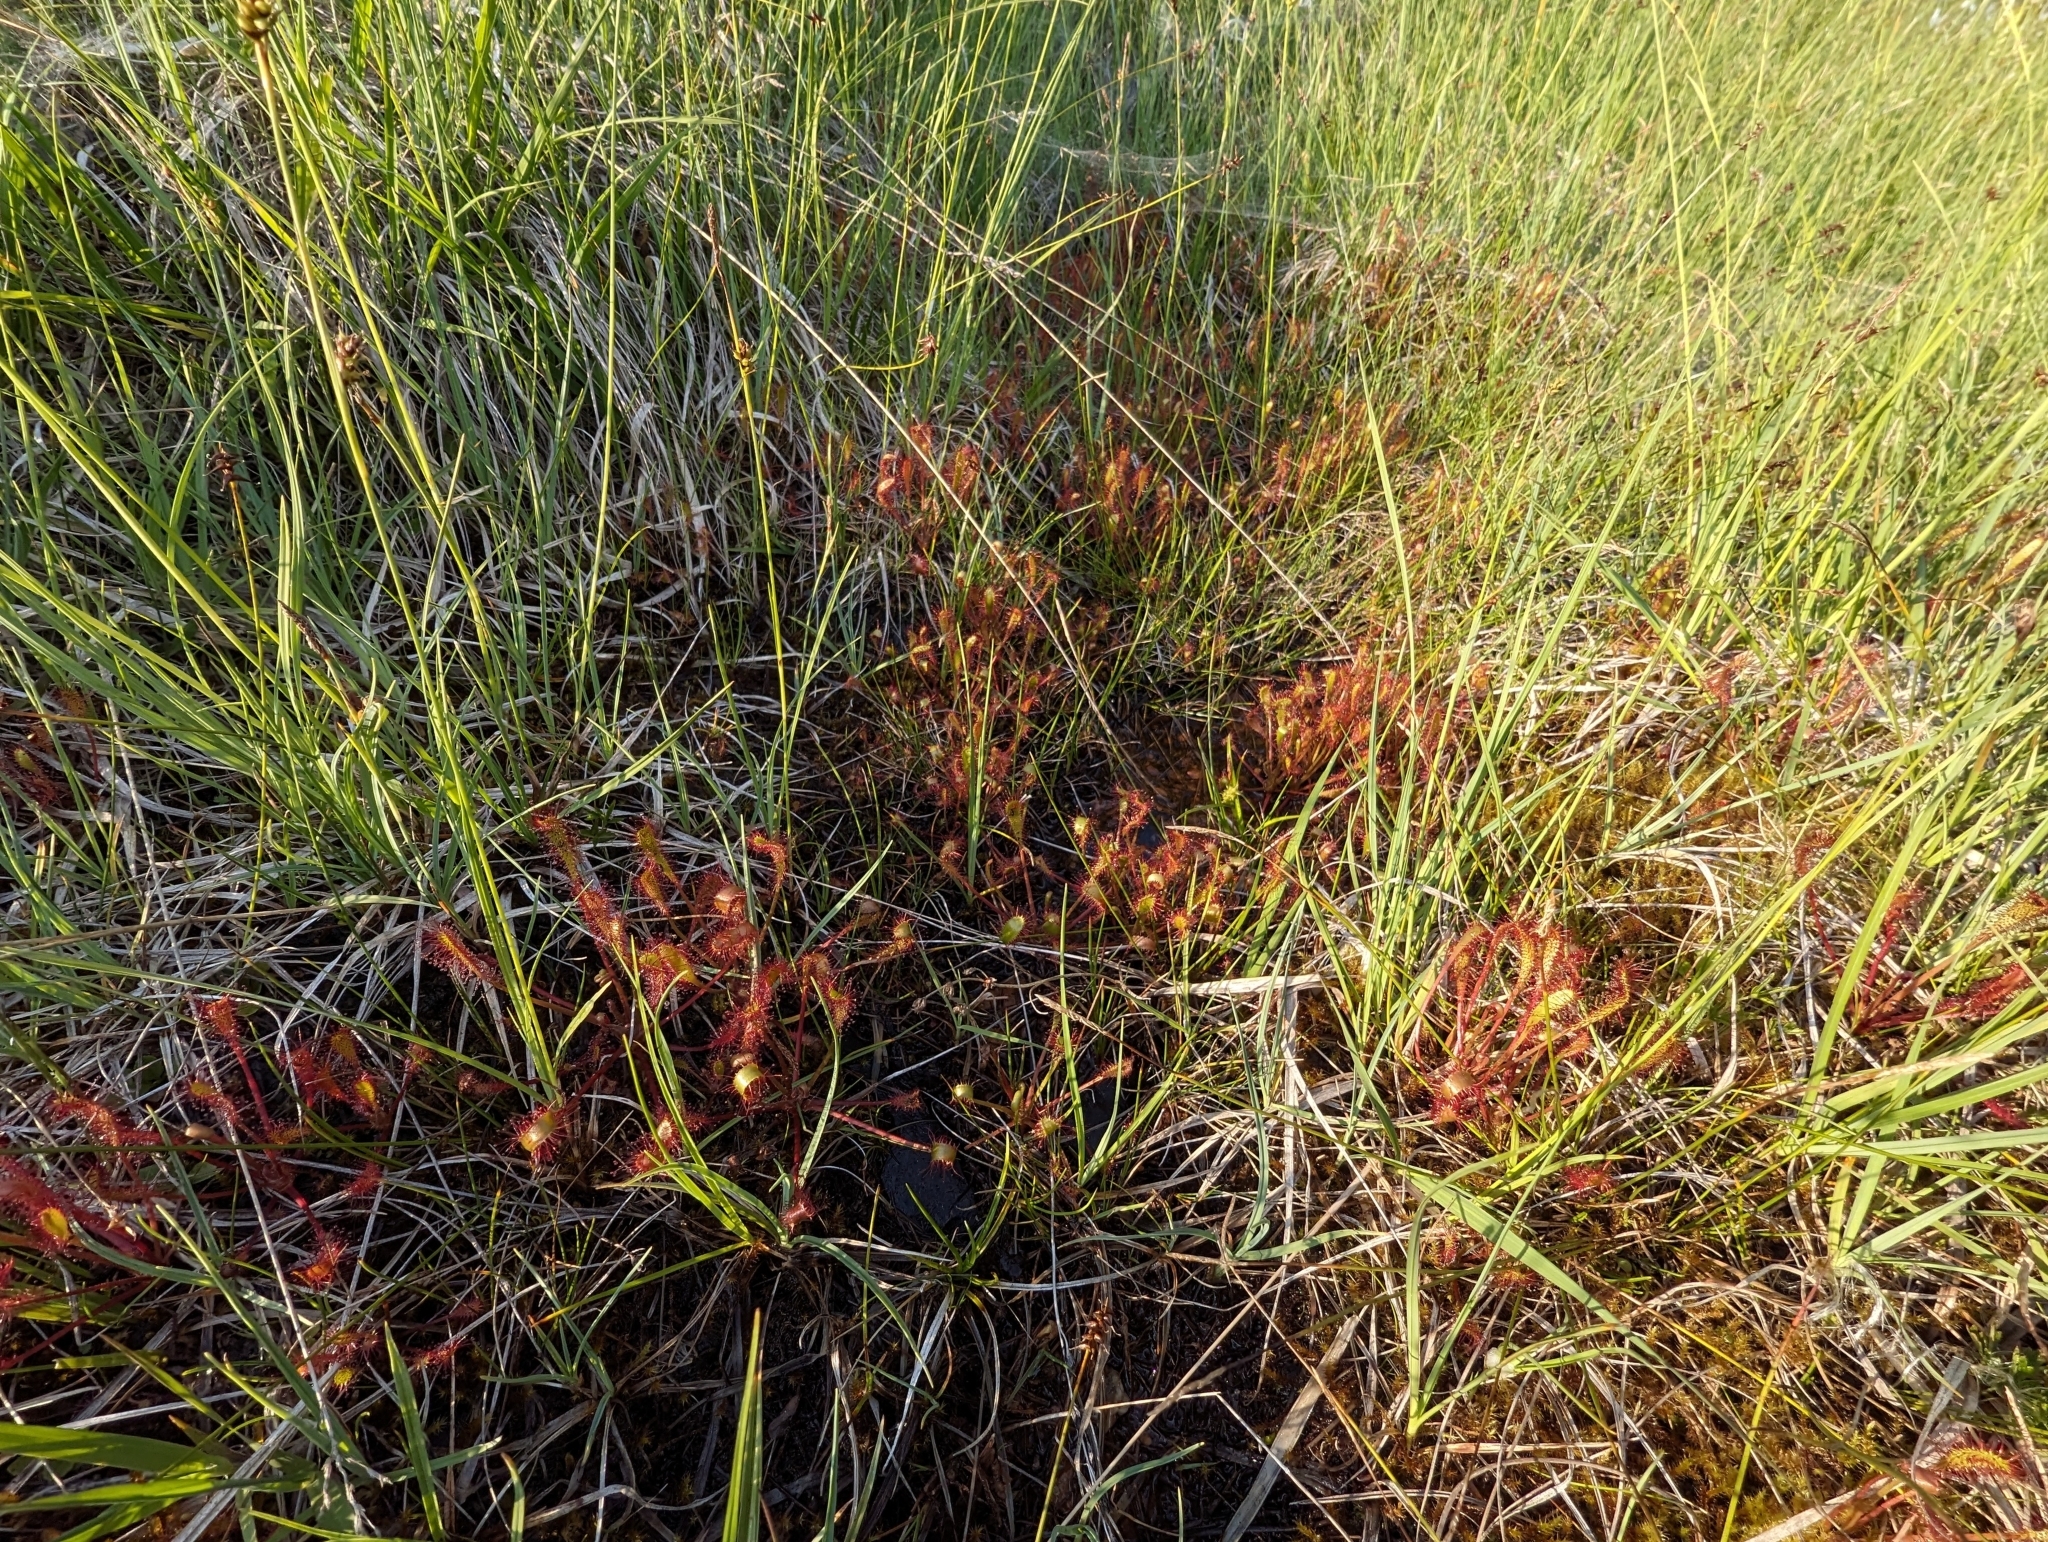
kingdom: Plantae
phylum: Tracheophyta
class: Magnoliopsida
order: Caryophyllales
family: Droseraceae
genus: Drosera
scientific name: Drosera anglica
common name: Great sundew
